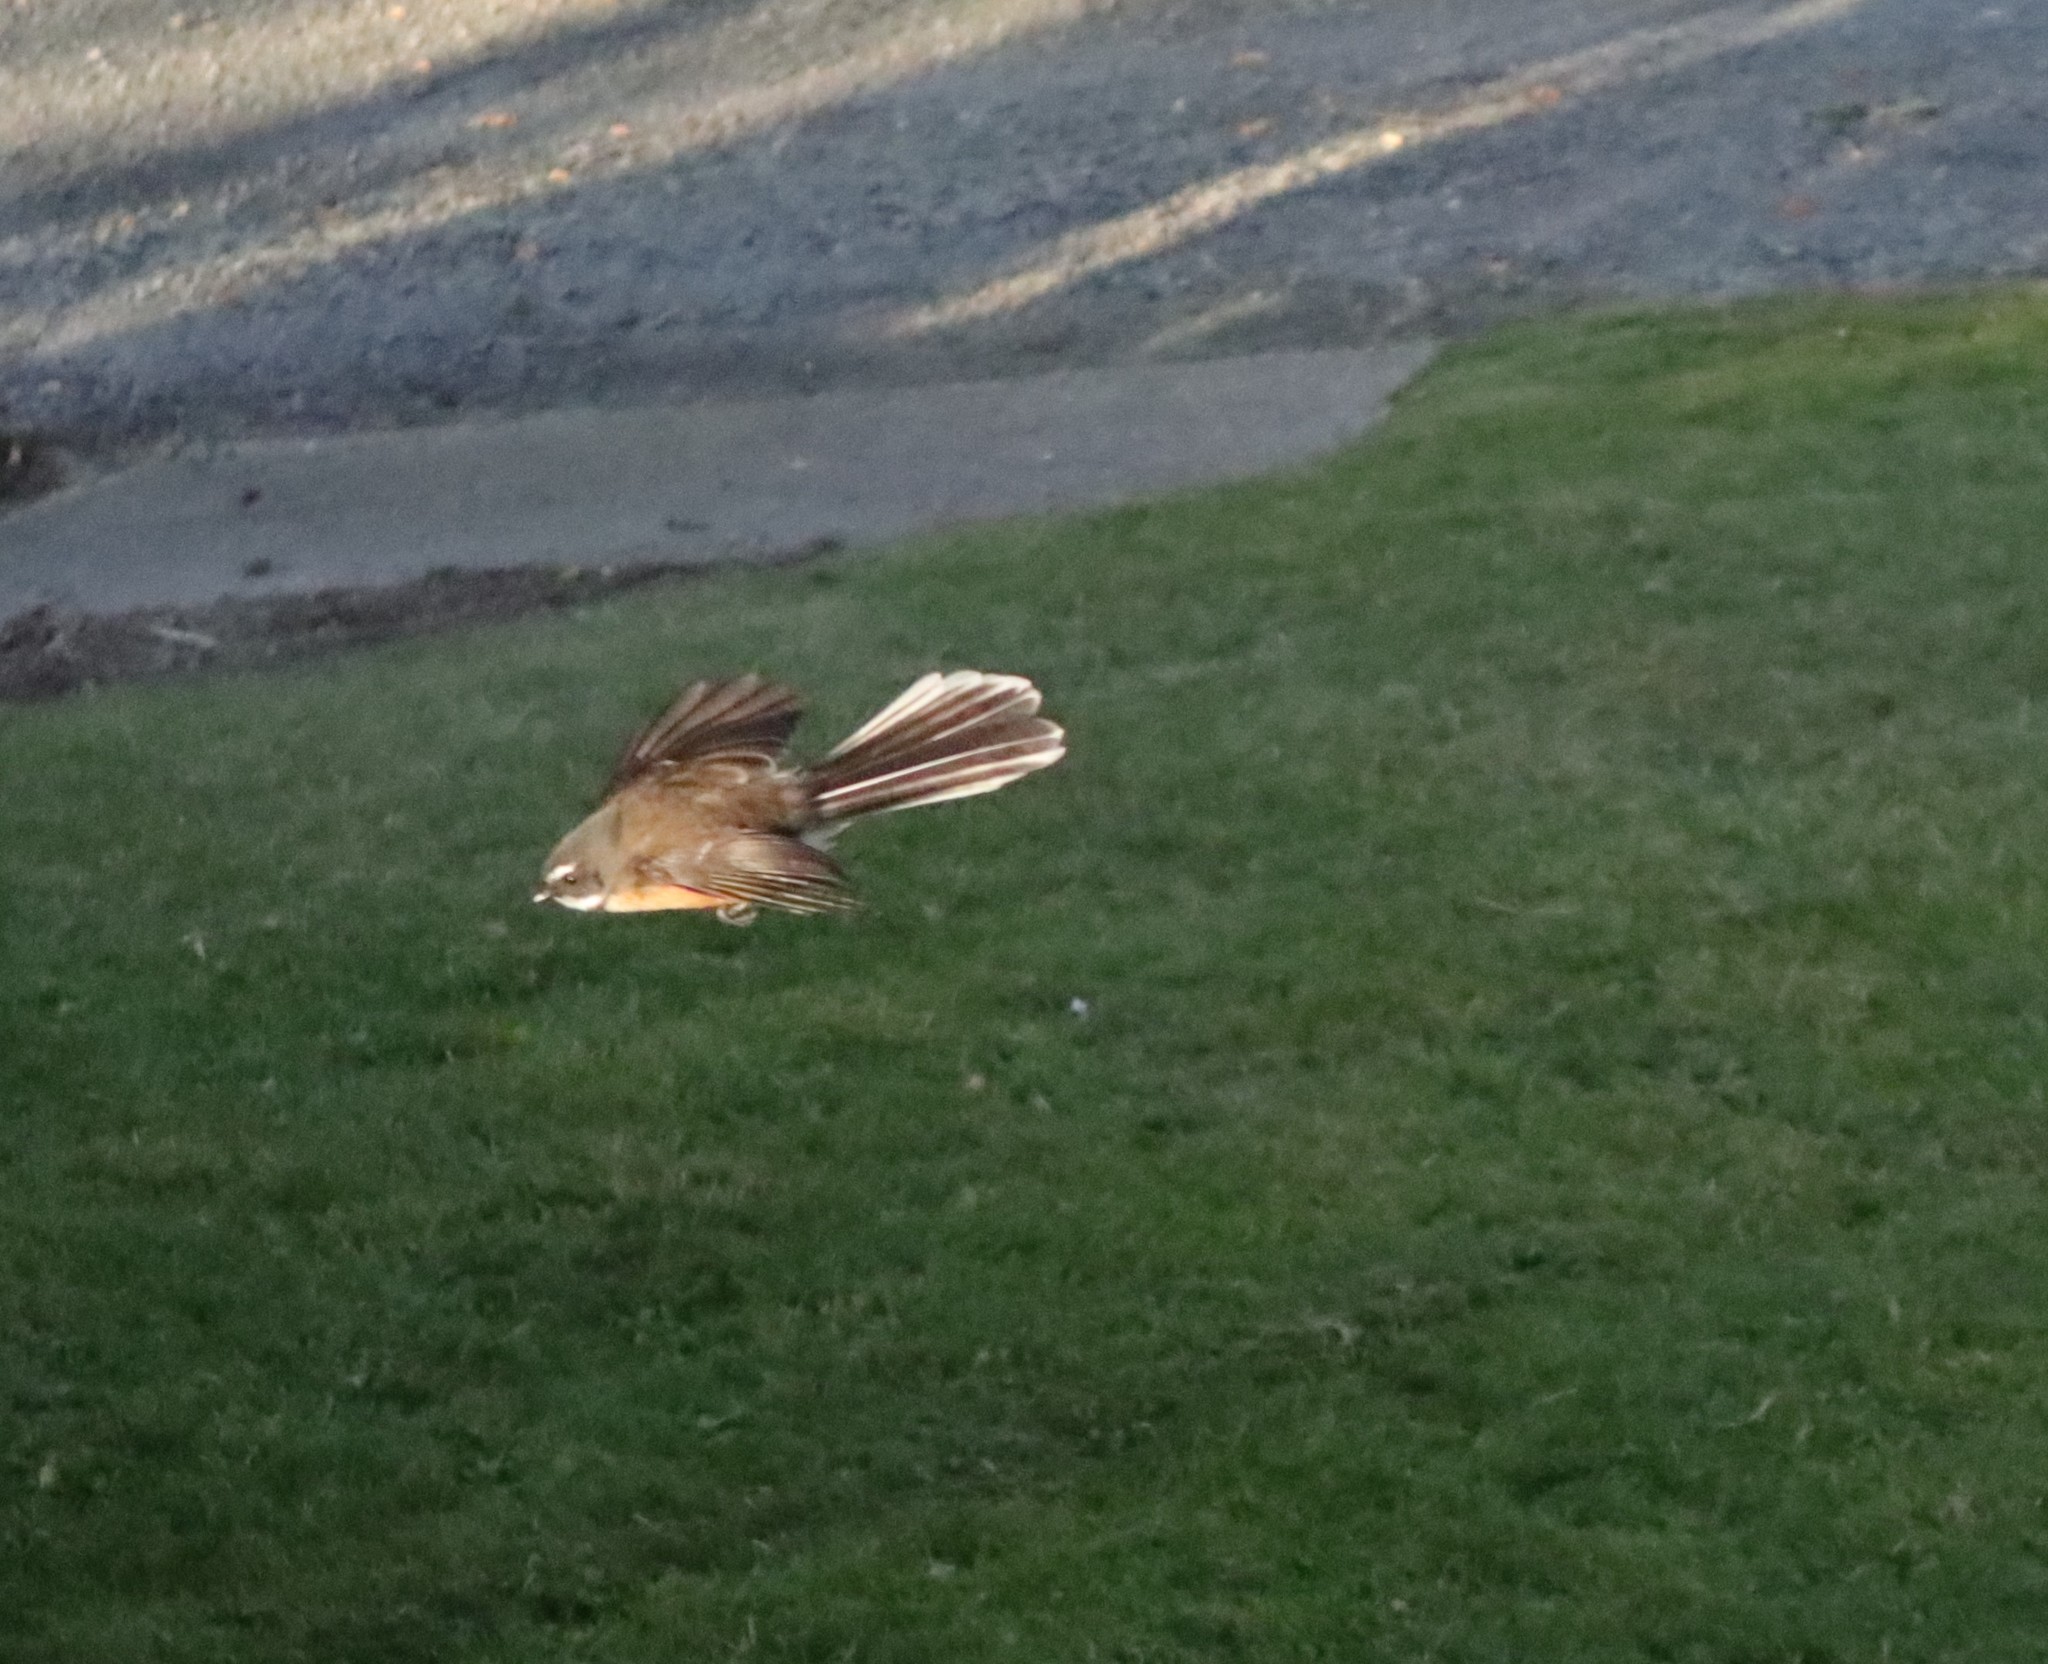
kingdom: Animalia
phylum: Chordata
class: Aves
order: Passeriformes
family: Rhipiduridae
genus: Rhipidura
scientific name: Rhipidura fuliginosa
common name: New zealand fantail
